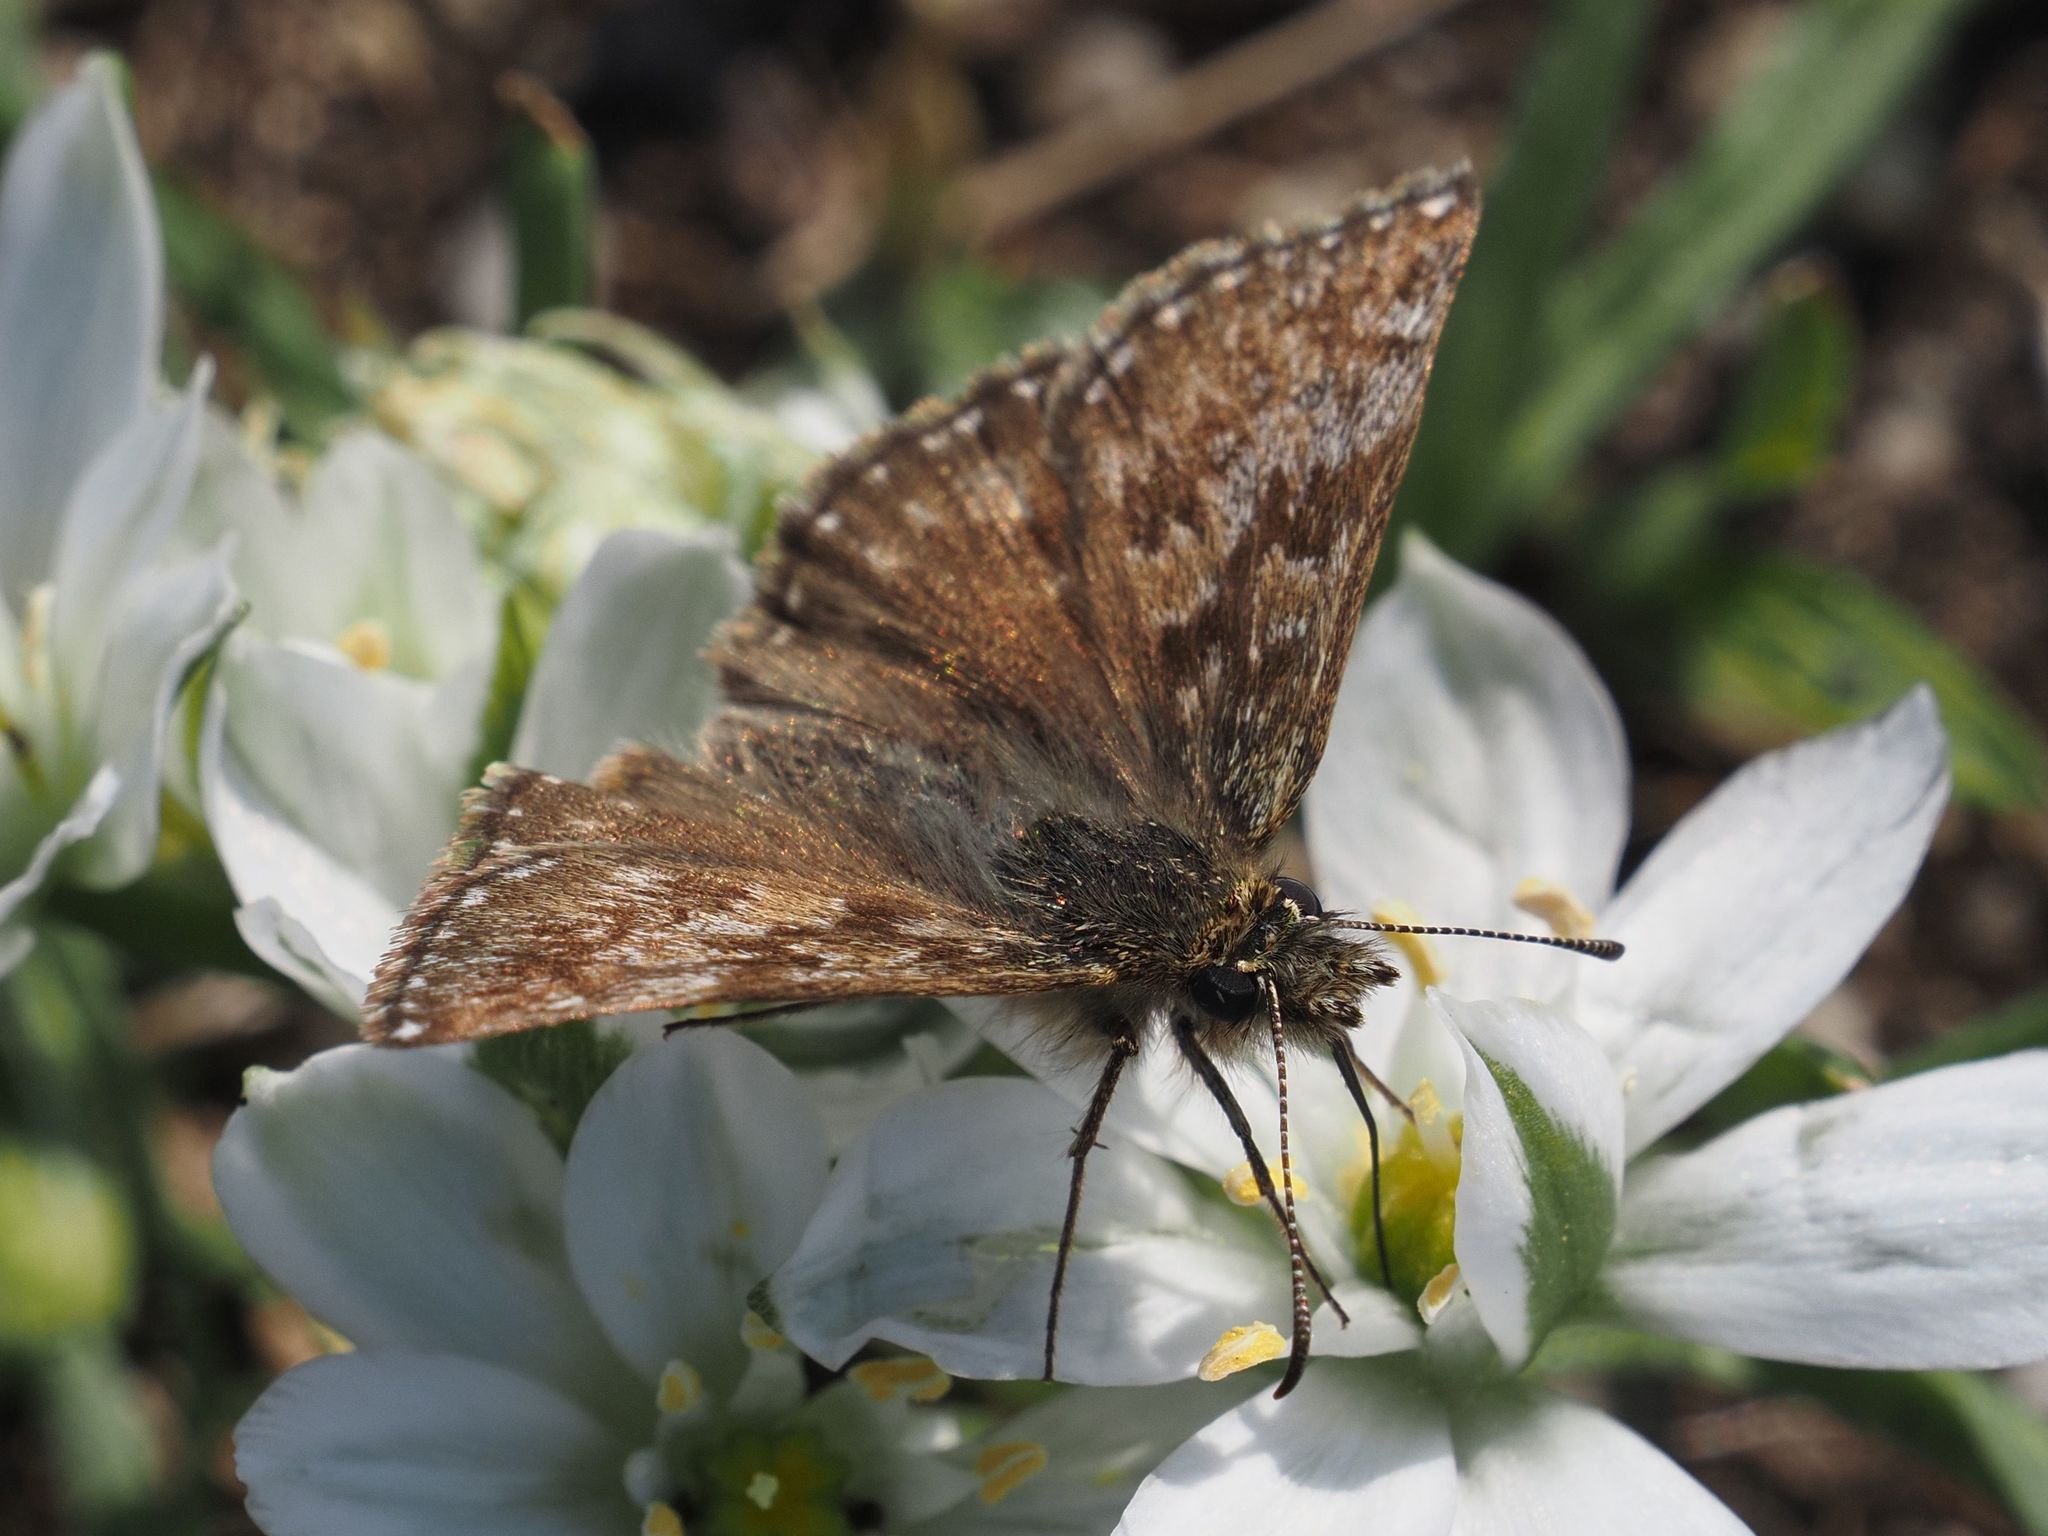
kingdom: Animalia
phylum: Arthropoda
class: Insecta
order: Lepidoptera
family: Hesperiidae
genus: Erynnis
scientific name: Erynnis tages
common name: Dingy skipper
